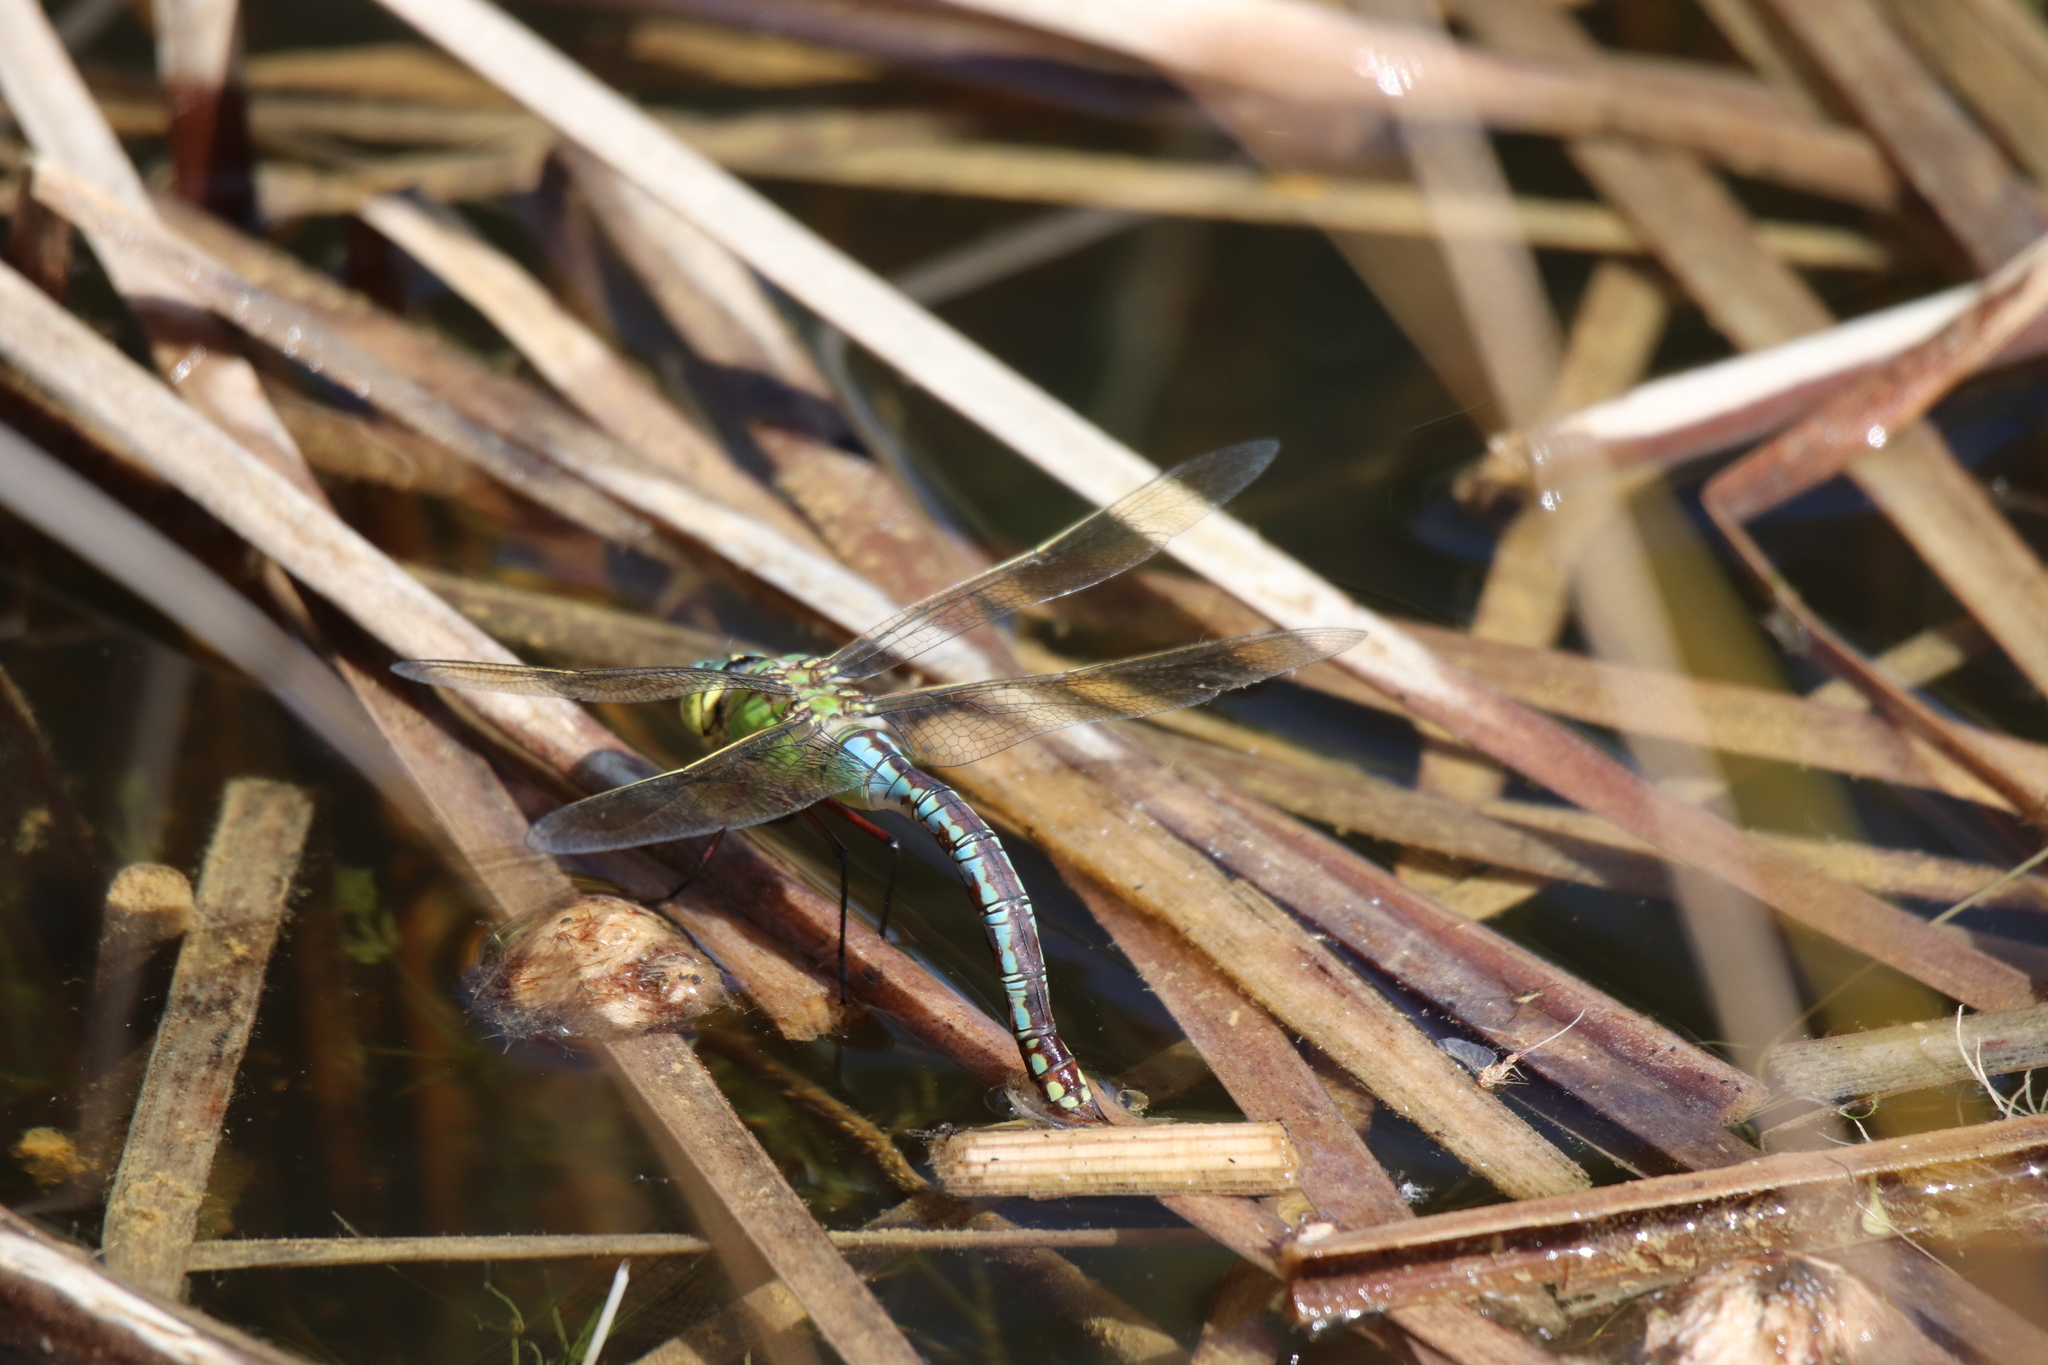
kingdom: Animalia
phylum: Arthropoda
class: Insecta
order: Odonata
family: Aeshnidae
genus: Anax
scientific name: Anax imperator
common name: Emperor dragonfly
